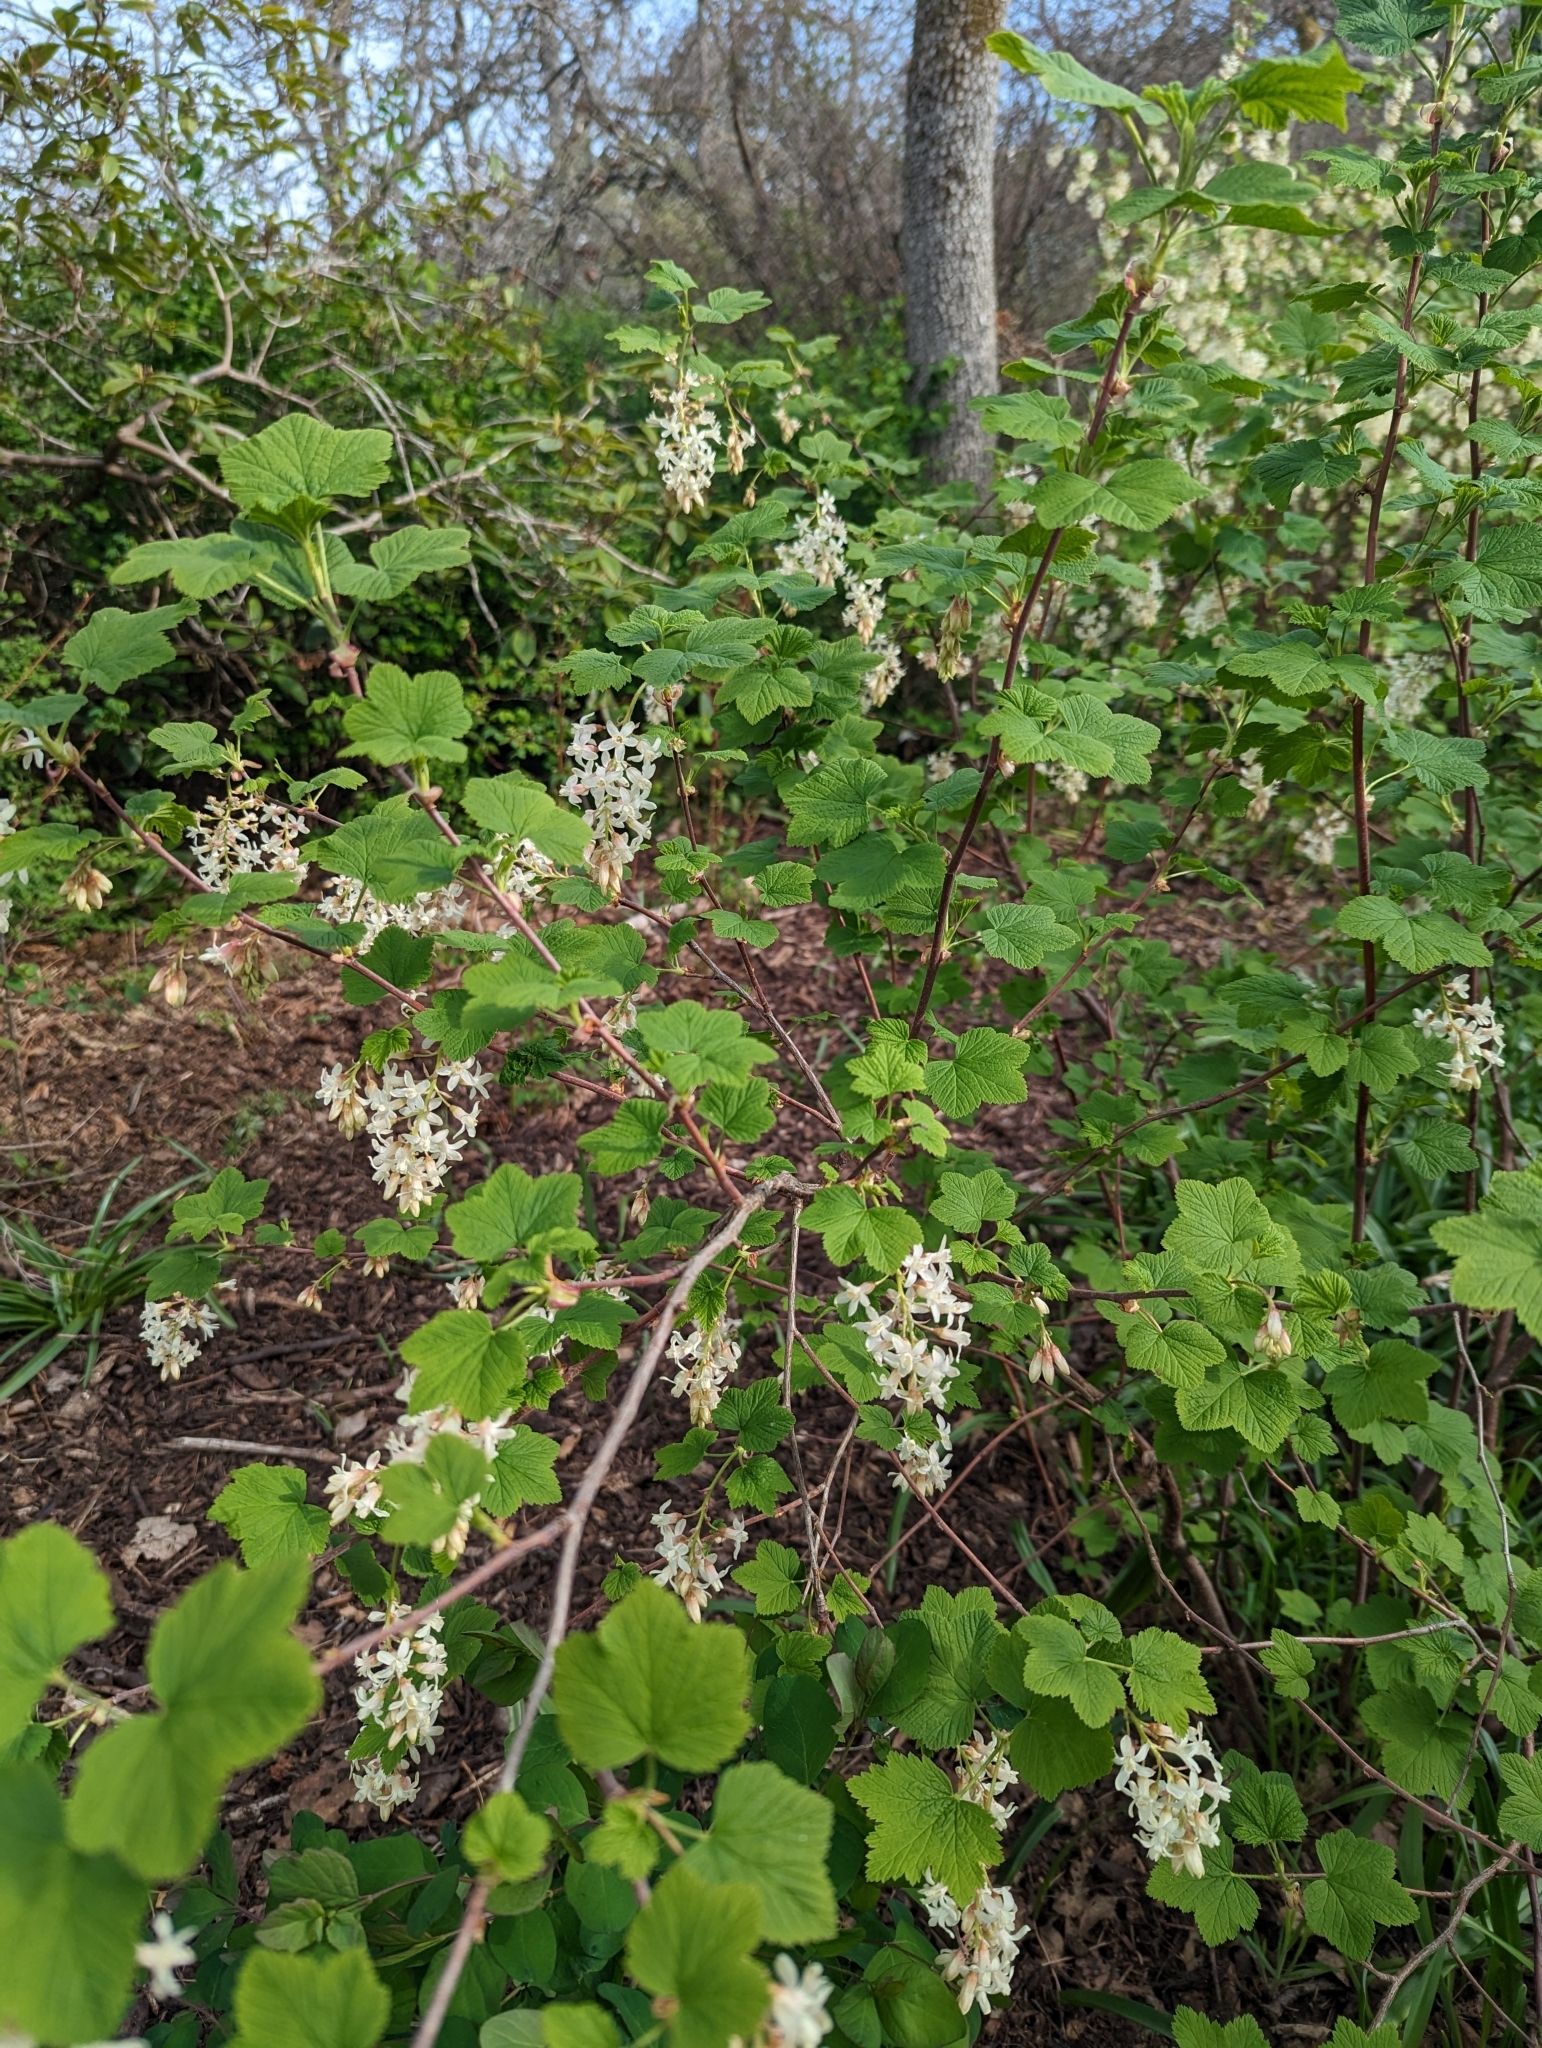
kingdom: Plantae
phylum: Tracheophyta
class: Magnoliopsida
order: Saxifragales
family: Grossulariaceae
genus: Ribes
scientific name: Ribes sanguineum
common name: Flowering currant
